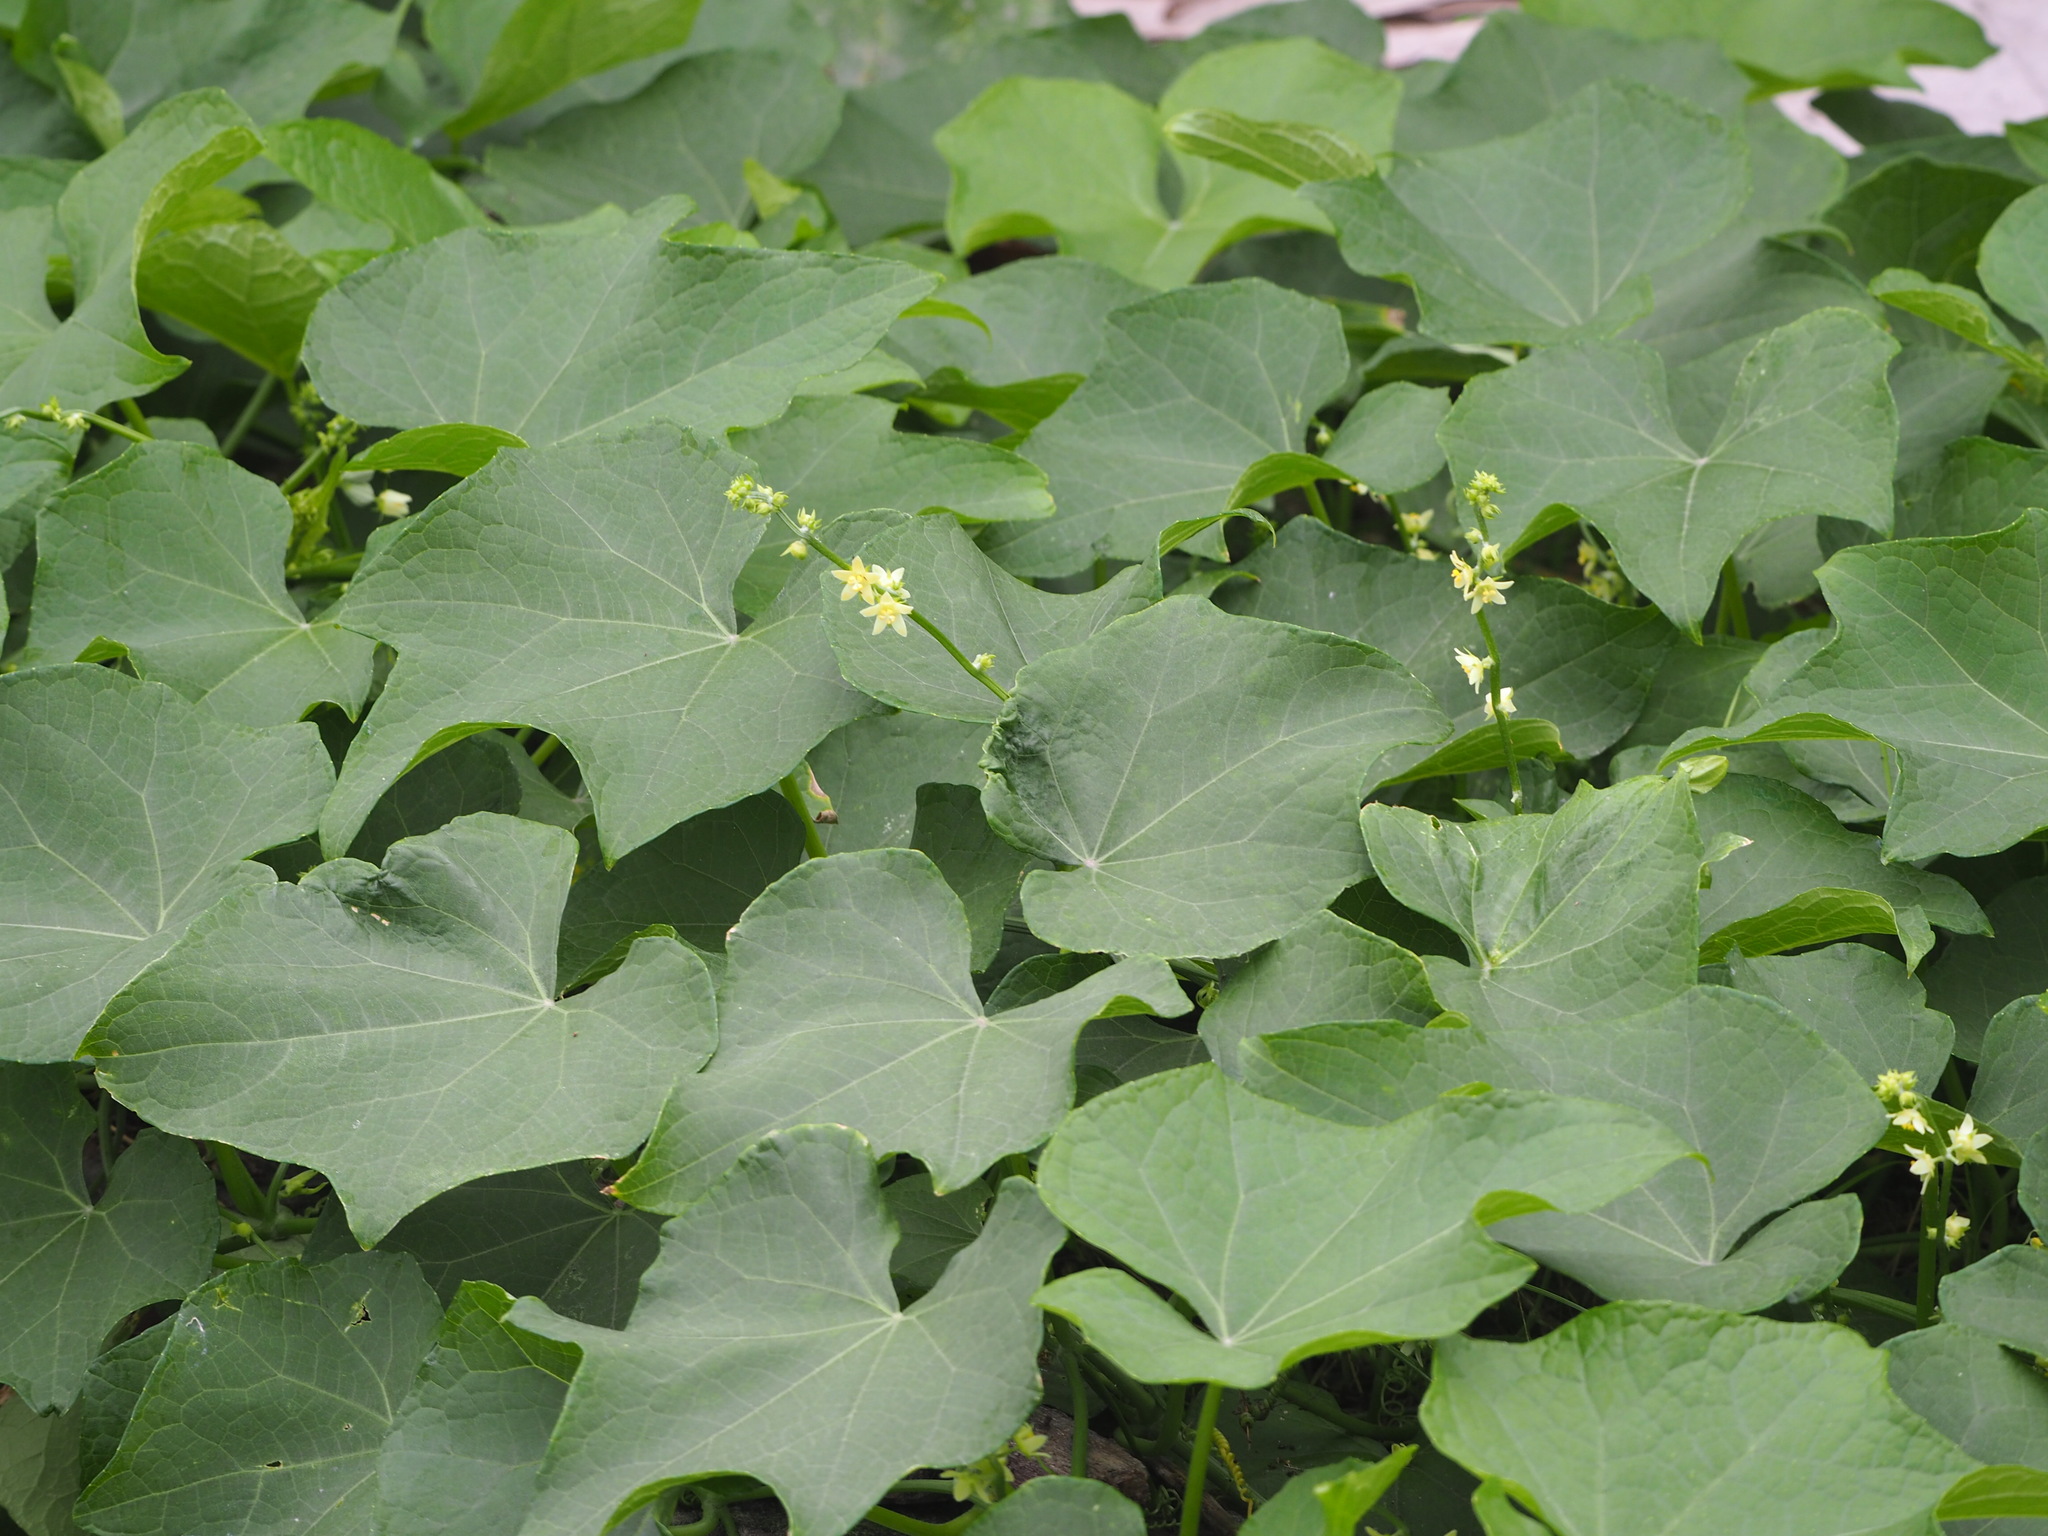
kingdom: Plantae
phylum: Tracheophyta
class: Magnoliopsida
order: Cucurbitales
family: Cucurbitaceae
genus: Sechium
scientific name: Sechium edule
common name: Chayote
